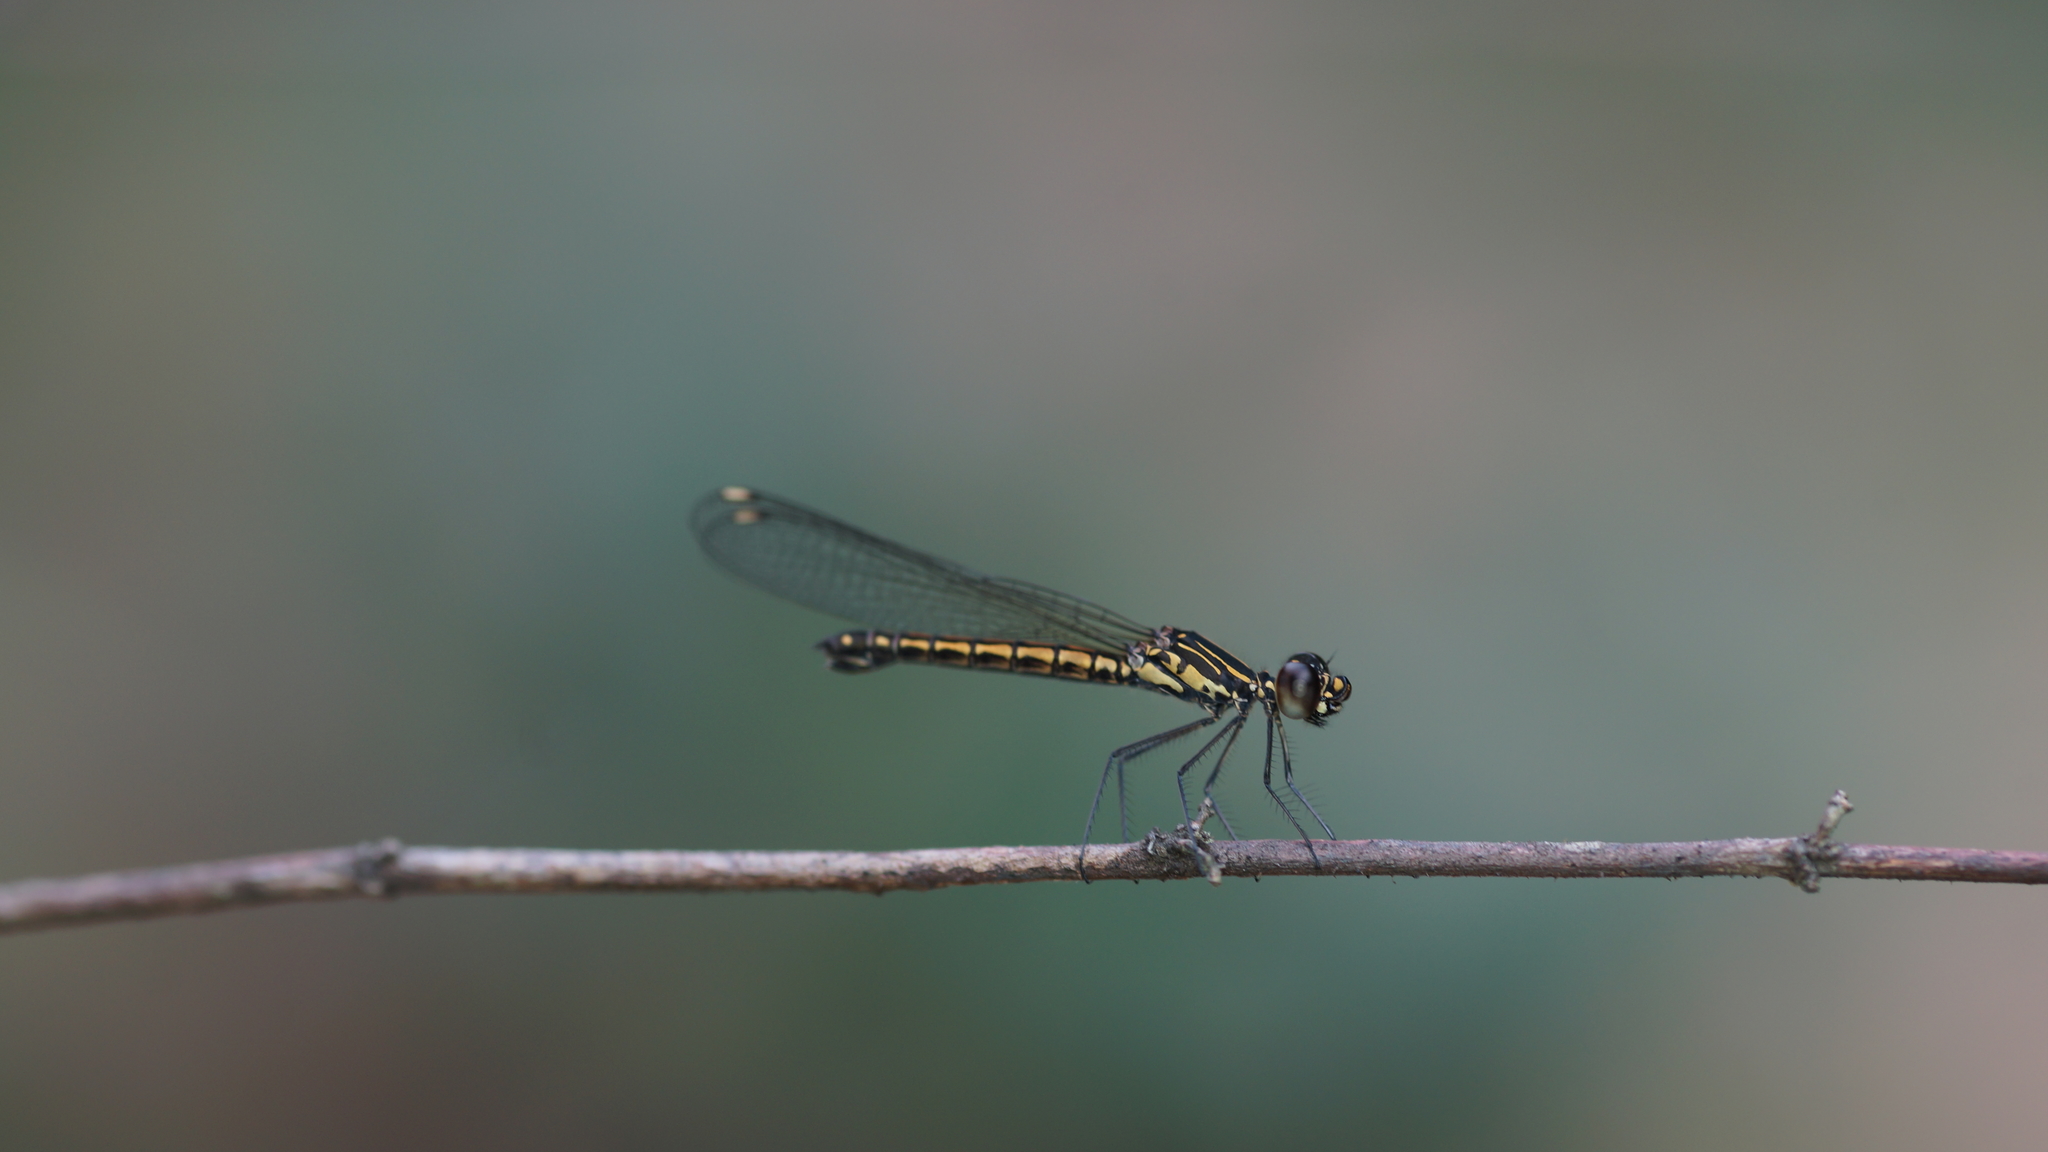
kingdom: Animalia
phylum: Arthropoda
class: Insecta
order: Odonata
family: Chlorocyphidae
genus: Libellago
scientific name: Libellago lineata
